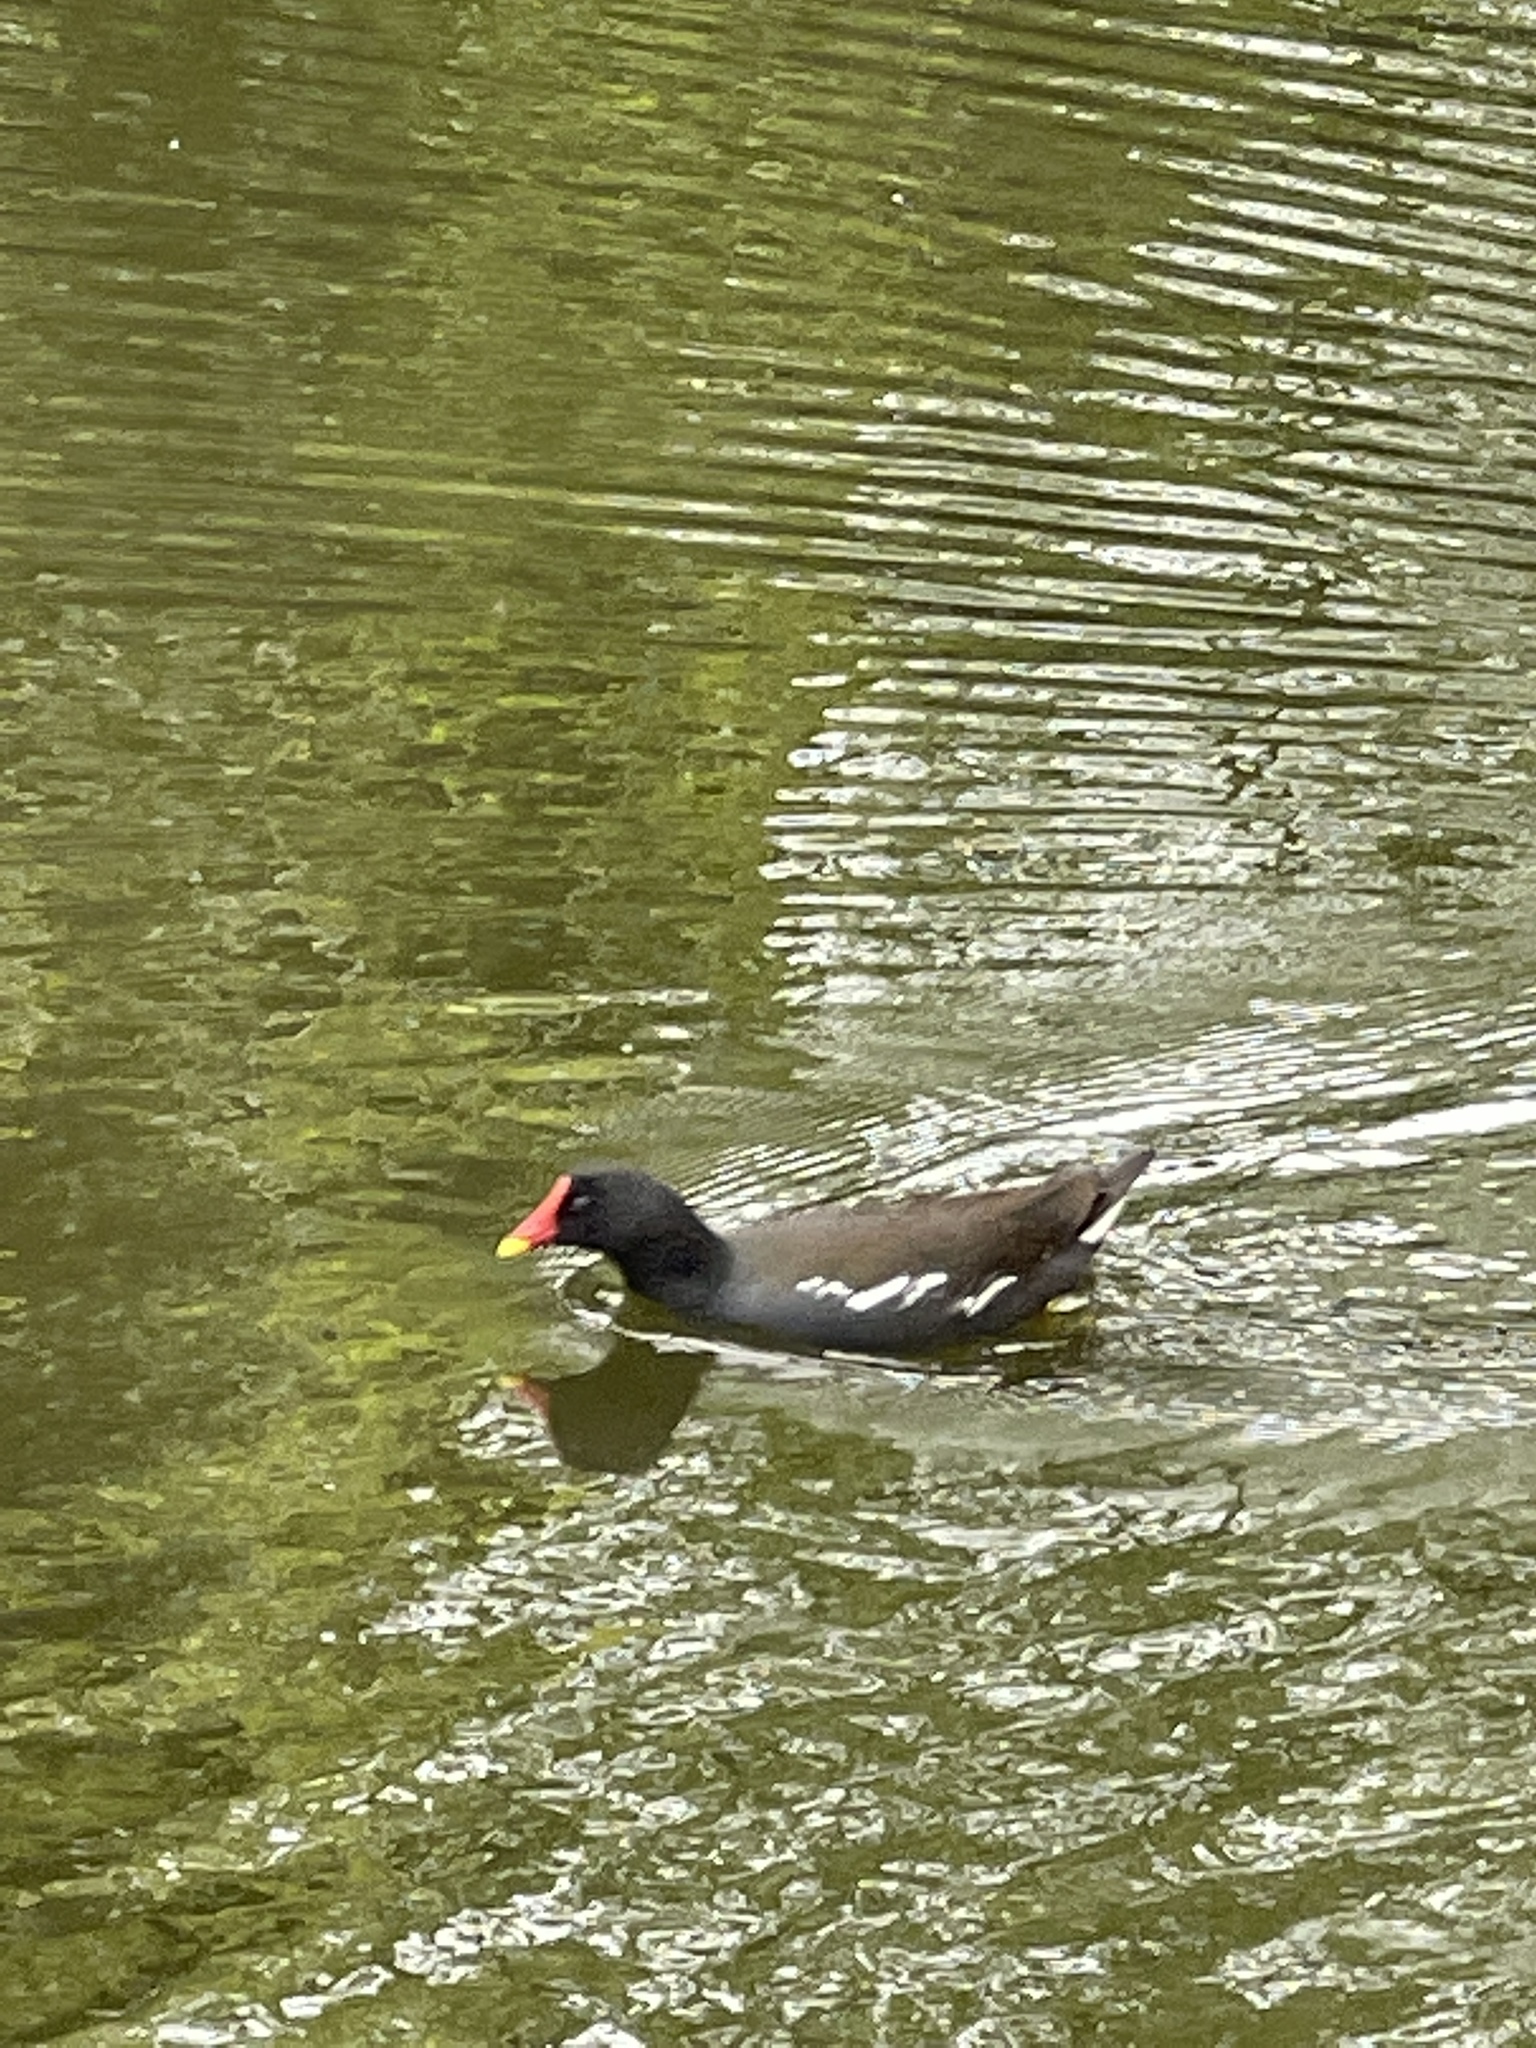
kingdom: Animalia
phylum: Chordata
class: Aves
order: Gruiformes
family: Rallidae
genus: Gallinula
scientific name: Gallinula chloropus
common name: Common moorhen
